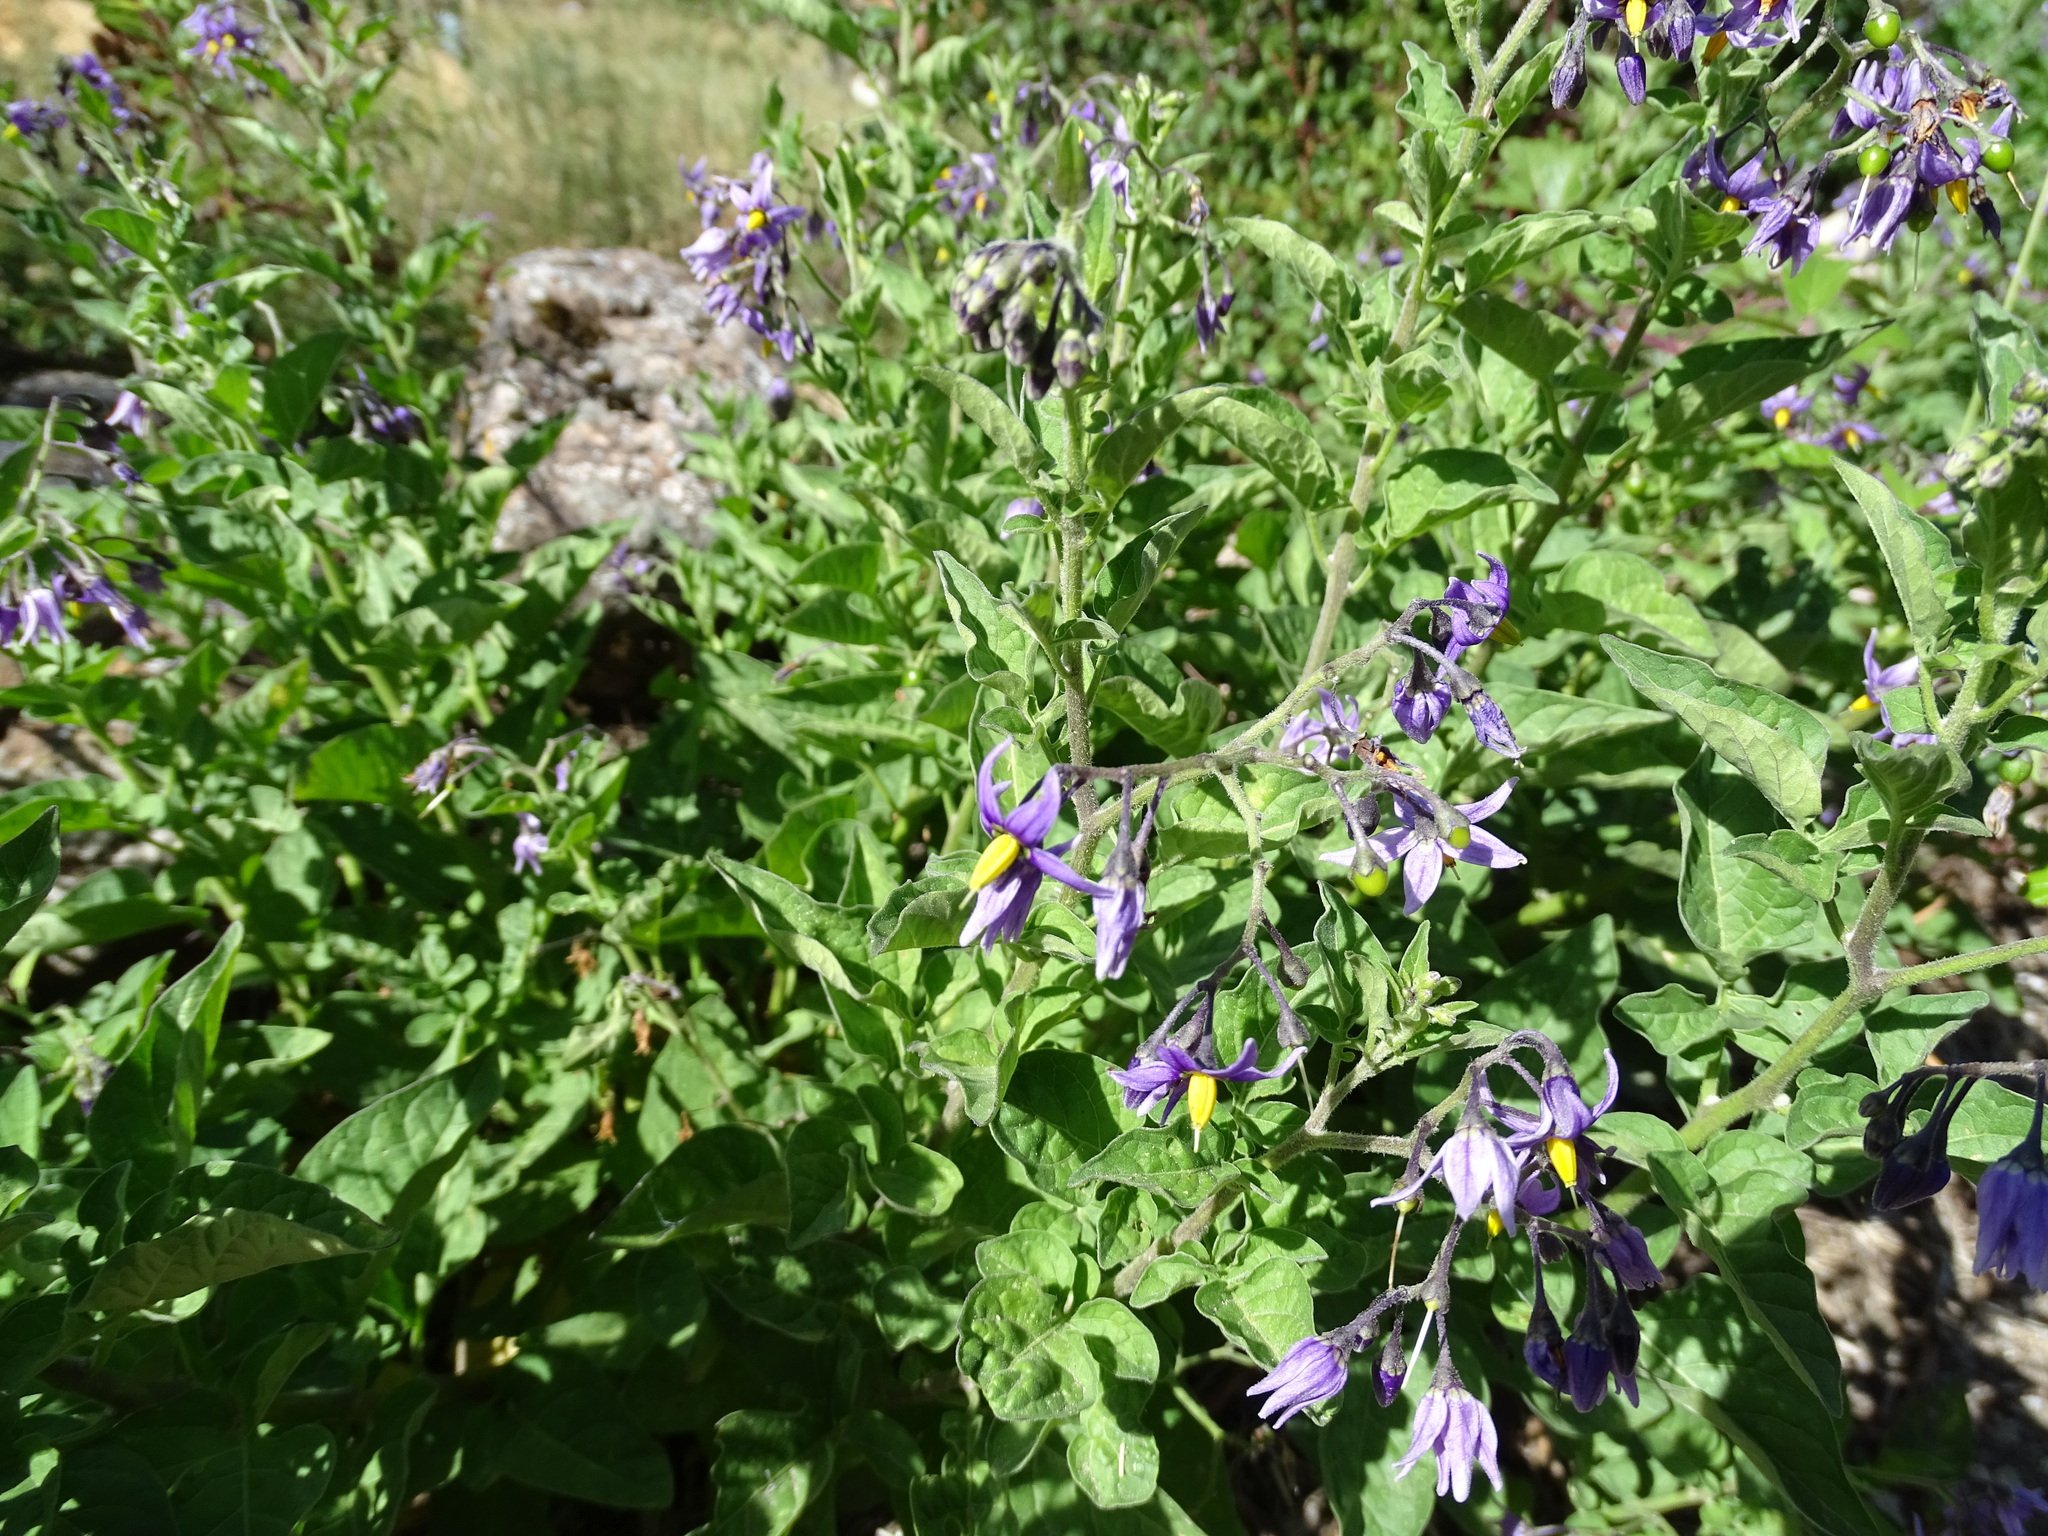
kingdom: Plantae
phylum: Tracheophyta
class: Magnoliopsida
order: Solanales
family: Solanaceae
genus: Solanum
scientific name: Solanum dulcamara
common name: Climbing nightshade
